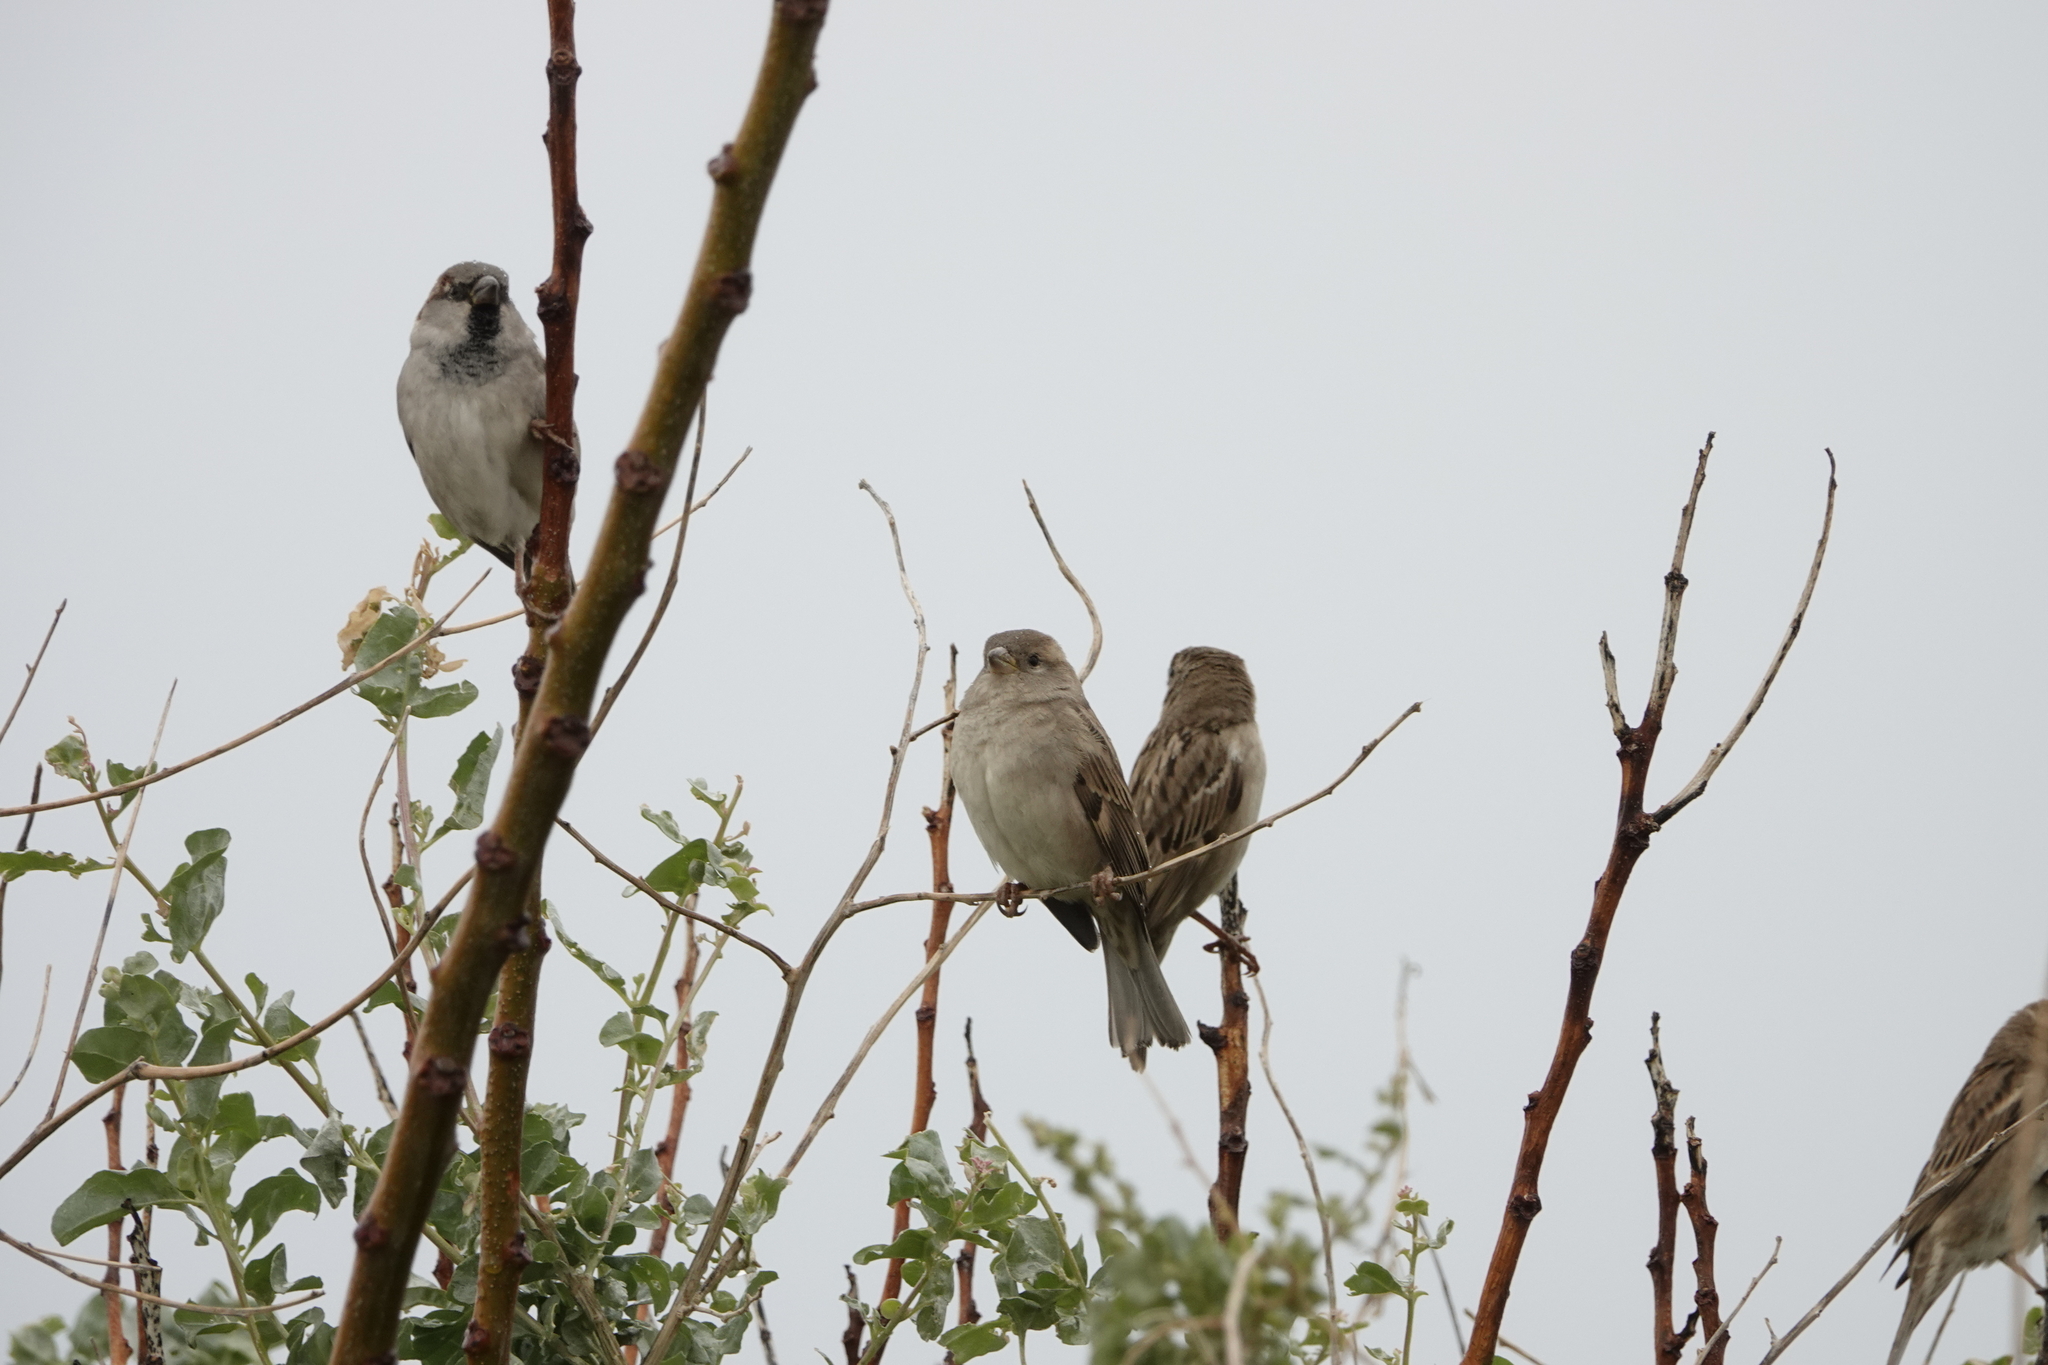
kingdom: Animalia
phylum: Chordata
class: Aves
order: Passeriformes
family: Passeridae
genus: Passer
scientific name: Passer domesticus
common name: House sparrow
